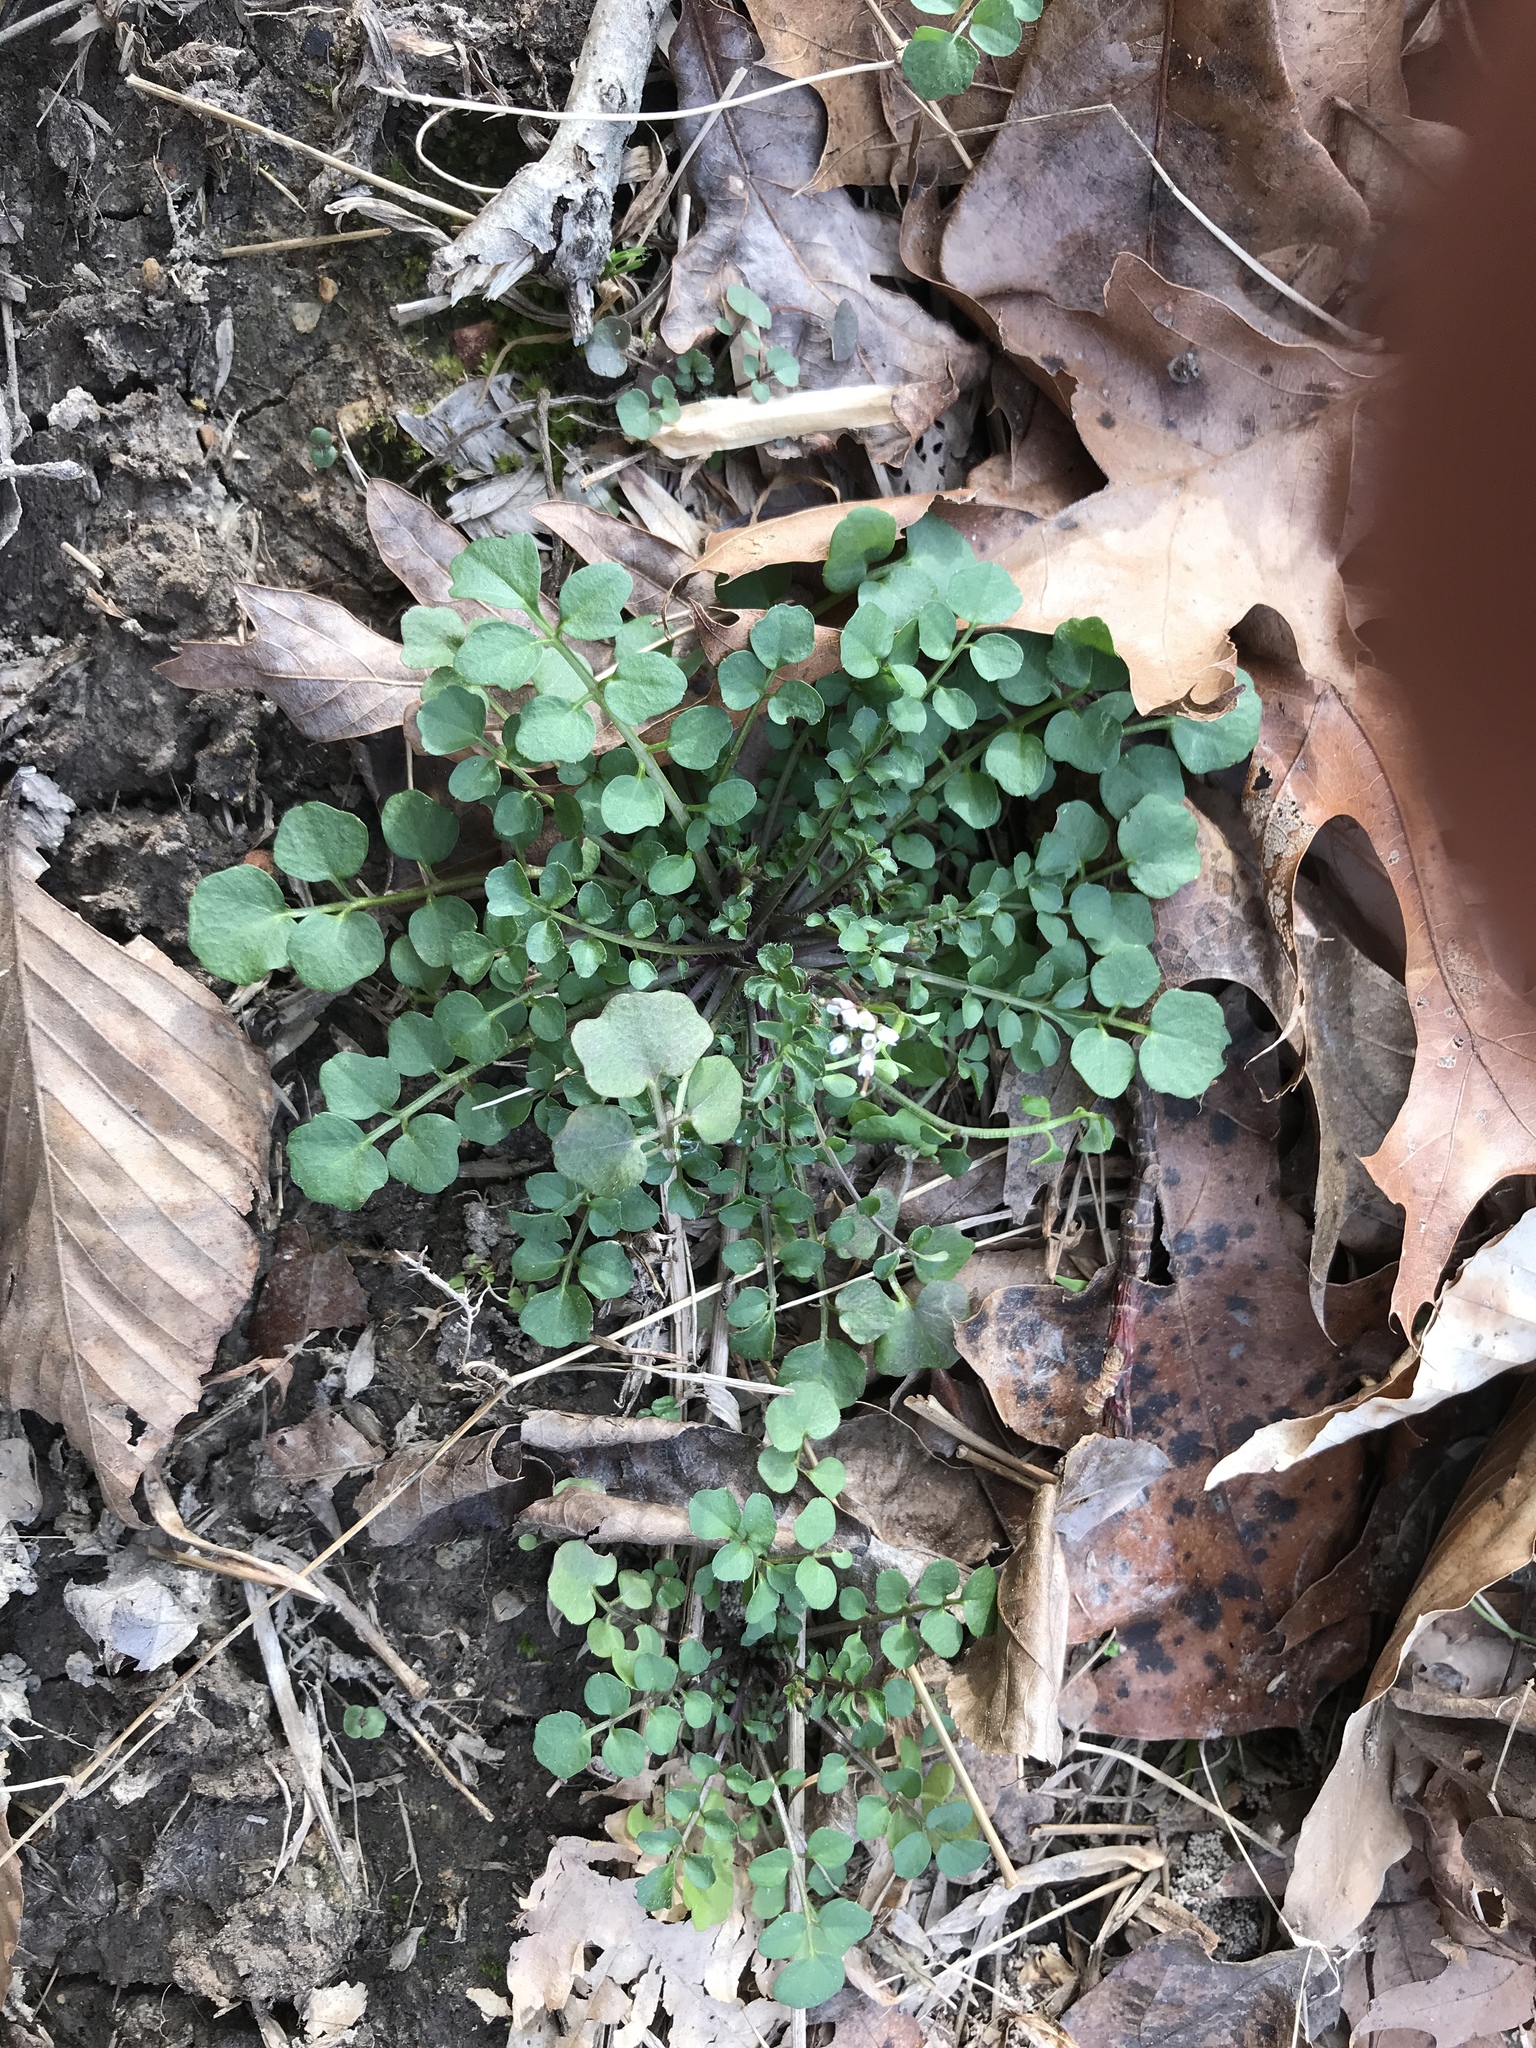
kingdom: Plantae
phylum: Tracheophyta
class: Magnoliopsida
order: Brassicales
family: Brassicaceae
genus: Cardamine
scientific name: Cardamine hirsuta
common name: Hairy bittercress
